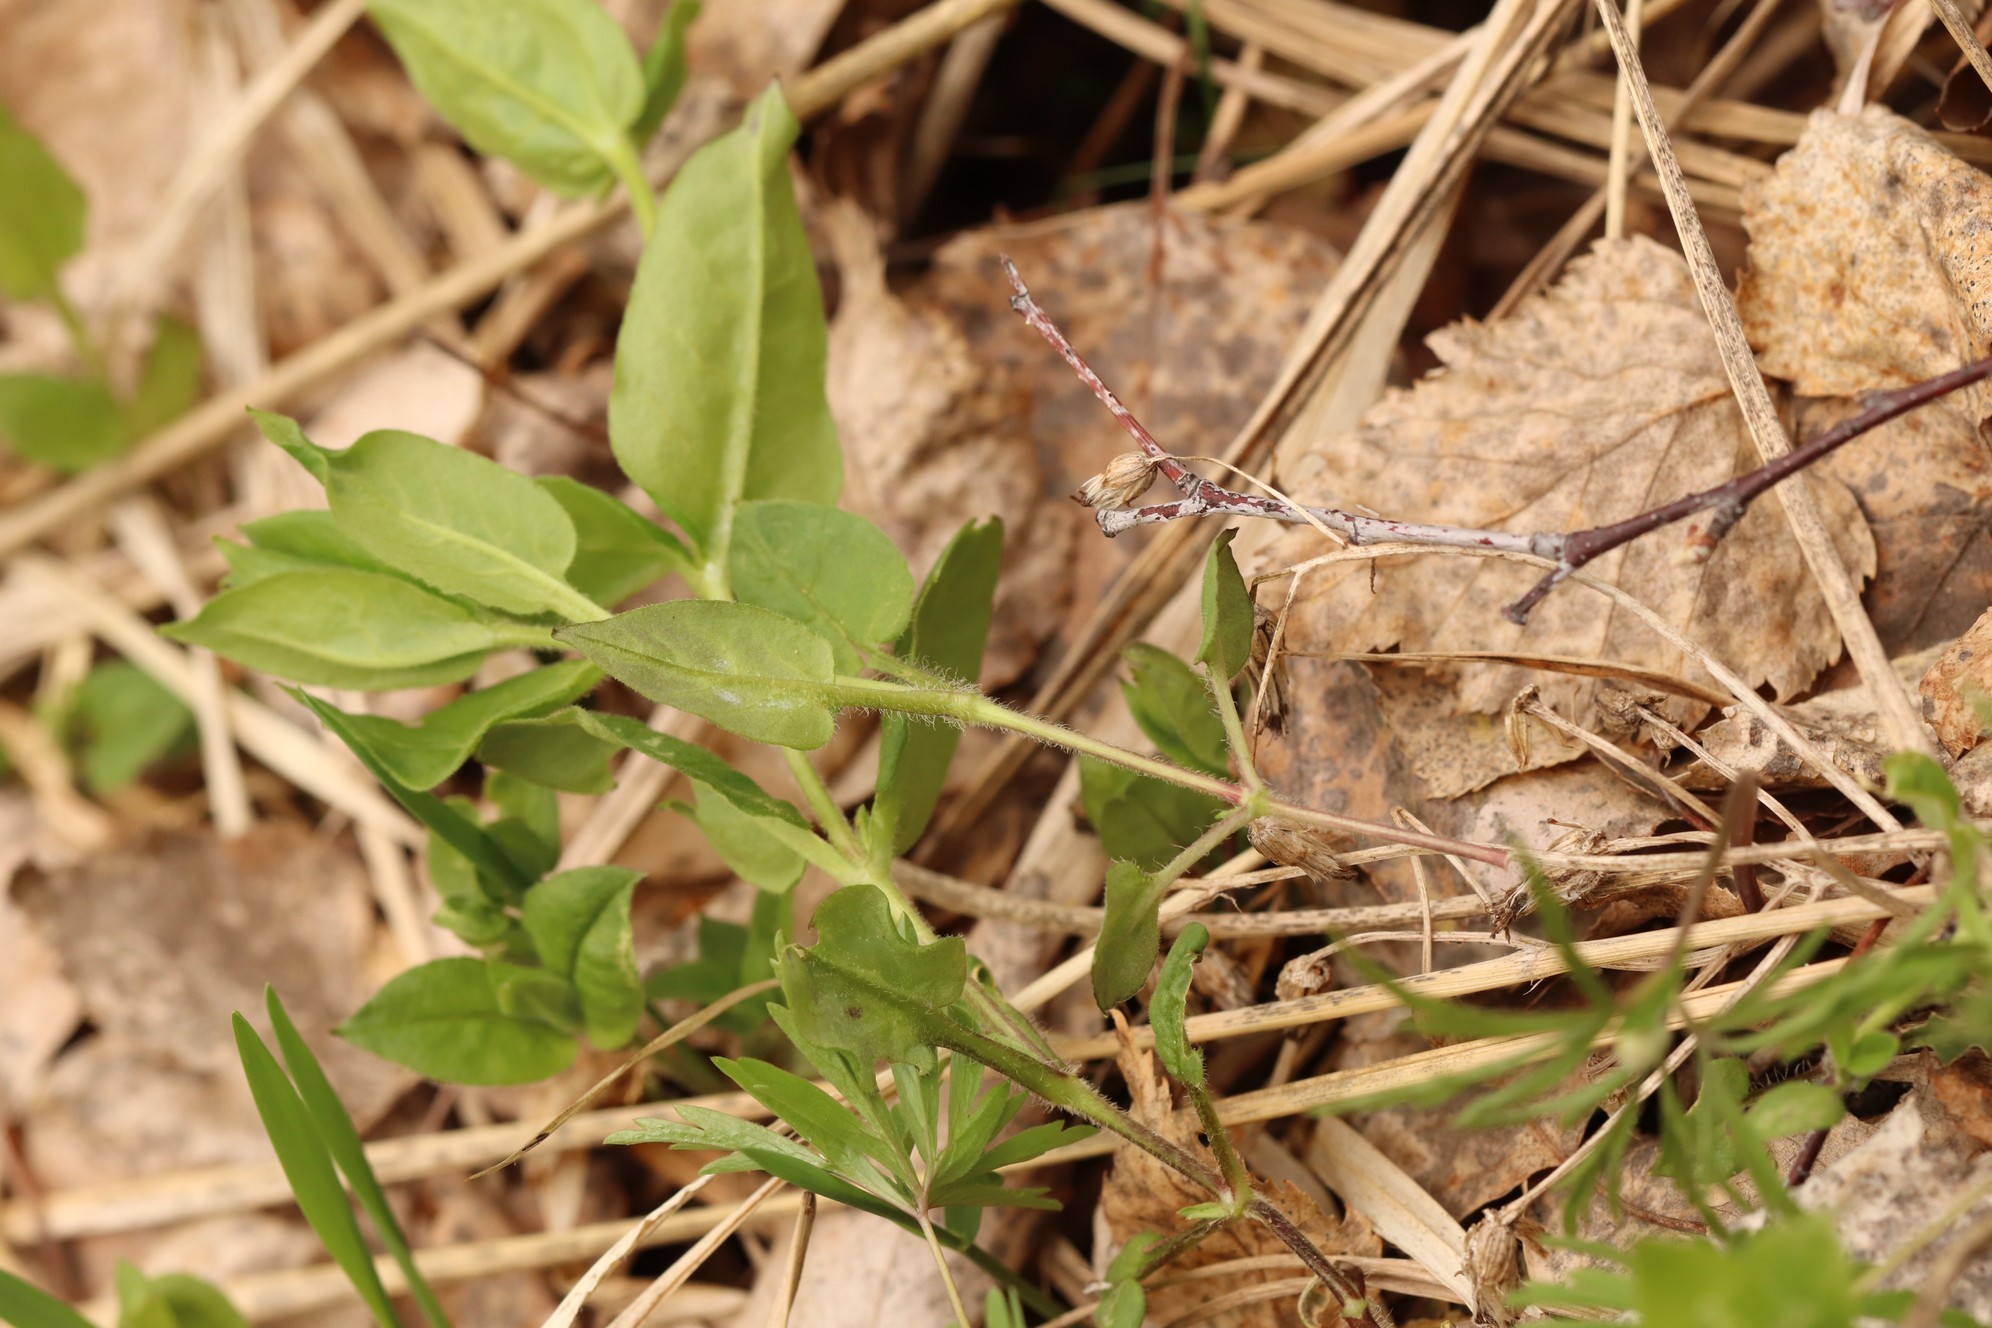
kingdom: Plantae
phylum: Tracheophyta
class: Magnoliopsida
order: Caryophyllales
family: Caryophyllaceae
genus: Stellaria
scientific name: Stellaria bungeana
